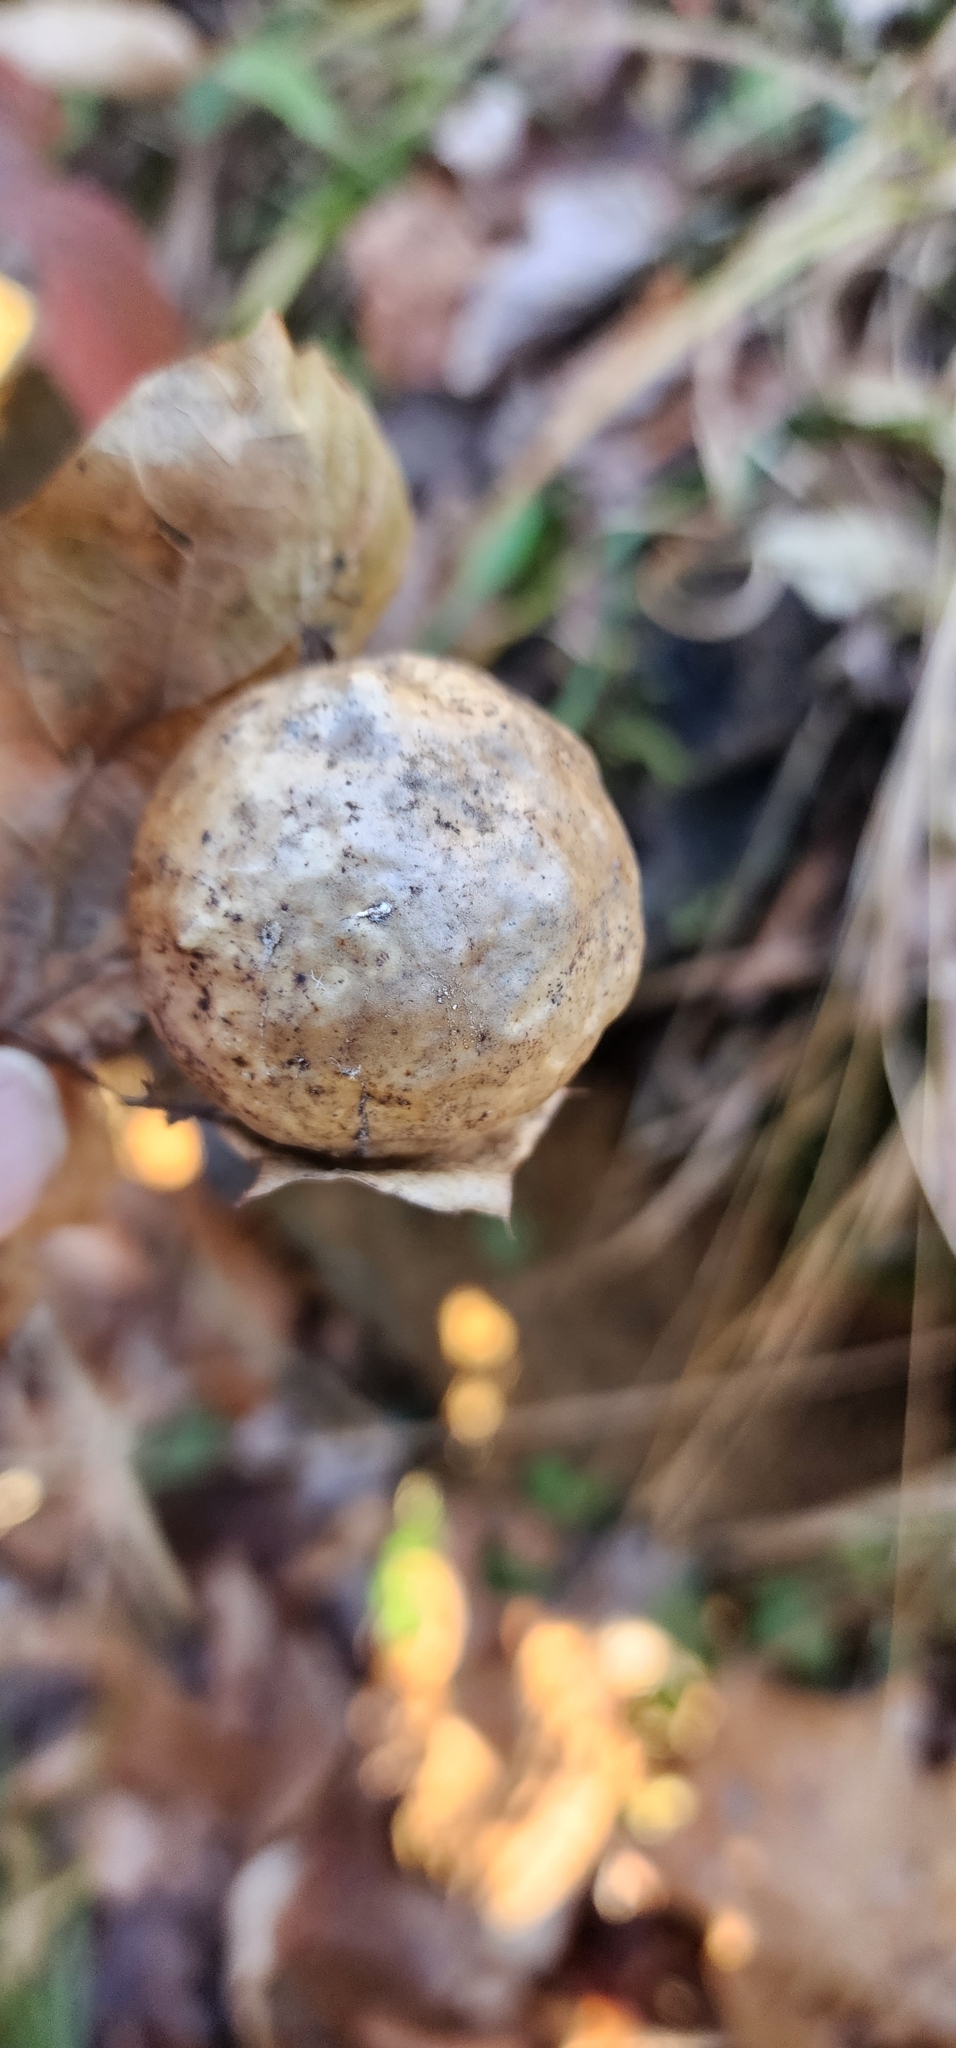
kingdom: Animalia
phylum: Arthropoda
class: Insecta
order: Hymenoptera
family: Cynipidae
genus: Amphibolips
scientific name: Amphibolips
